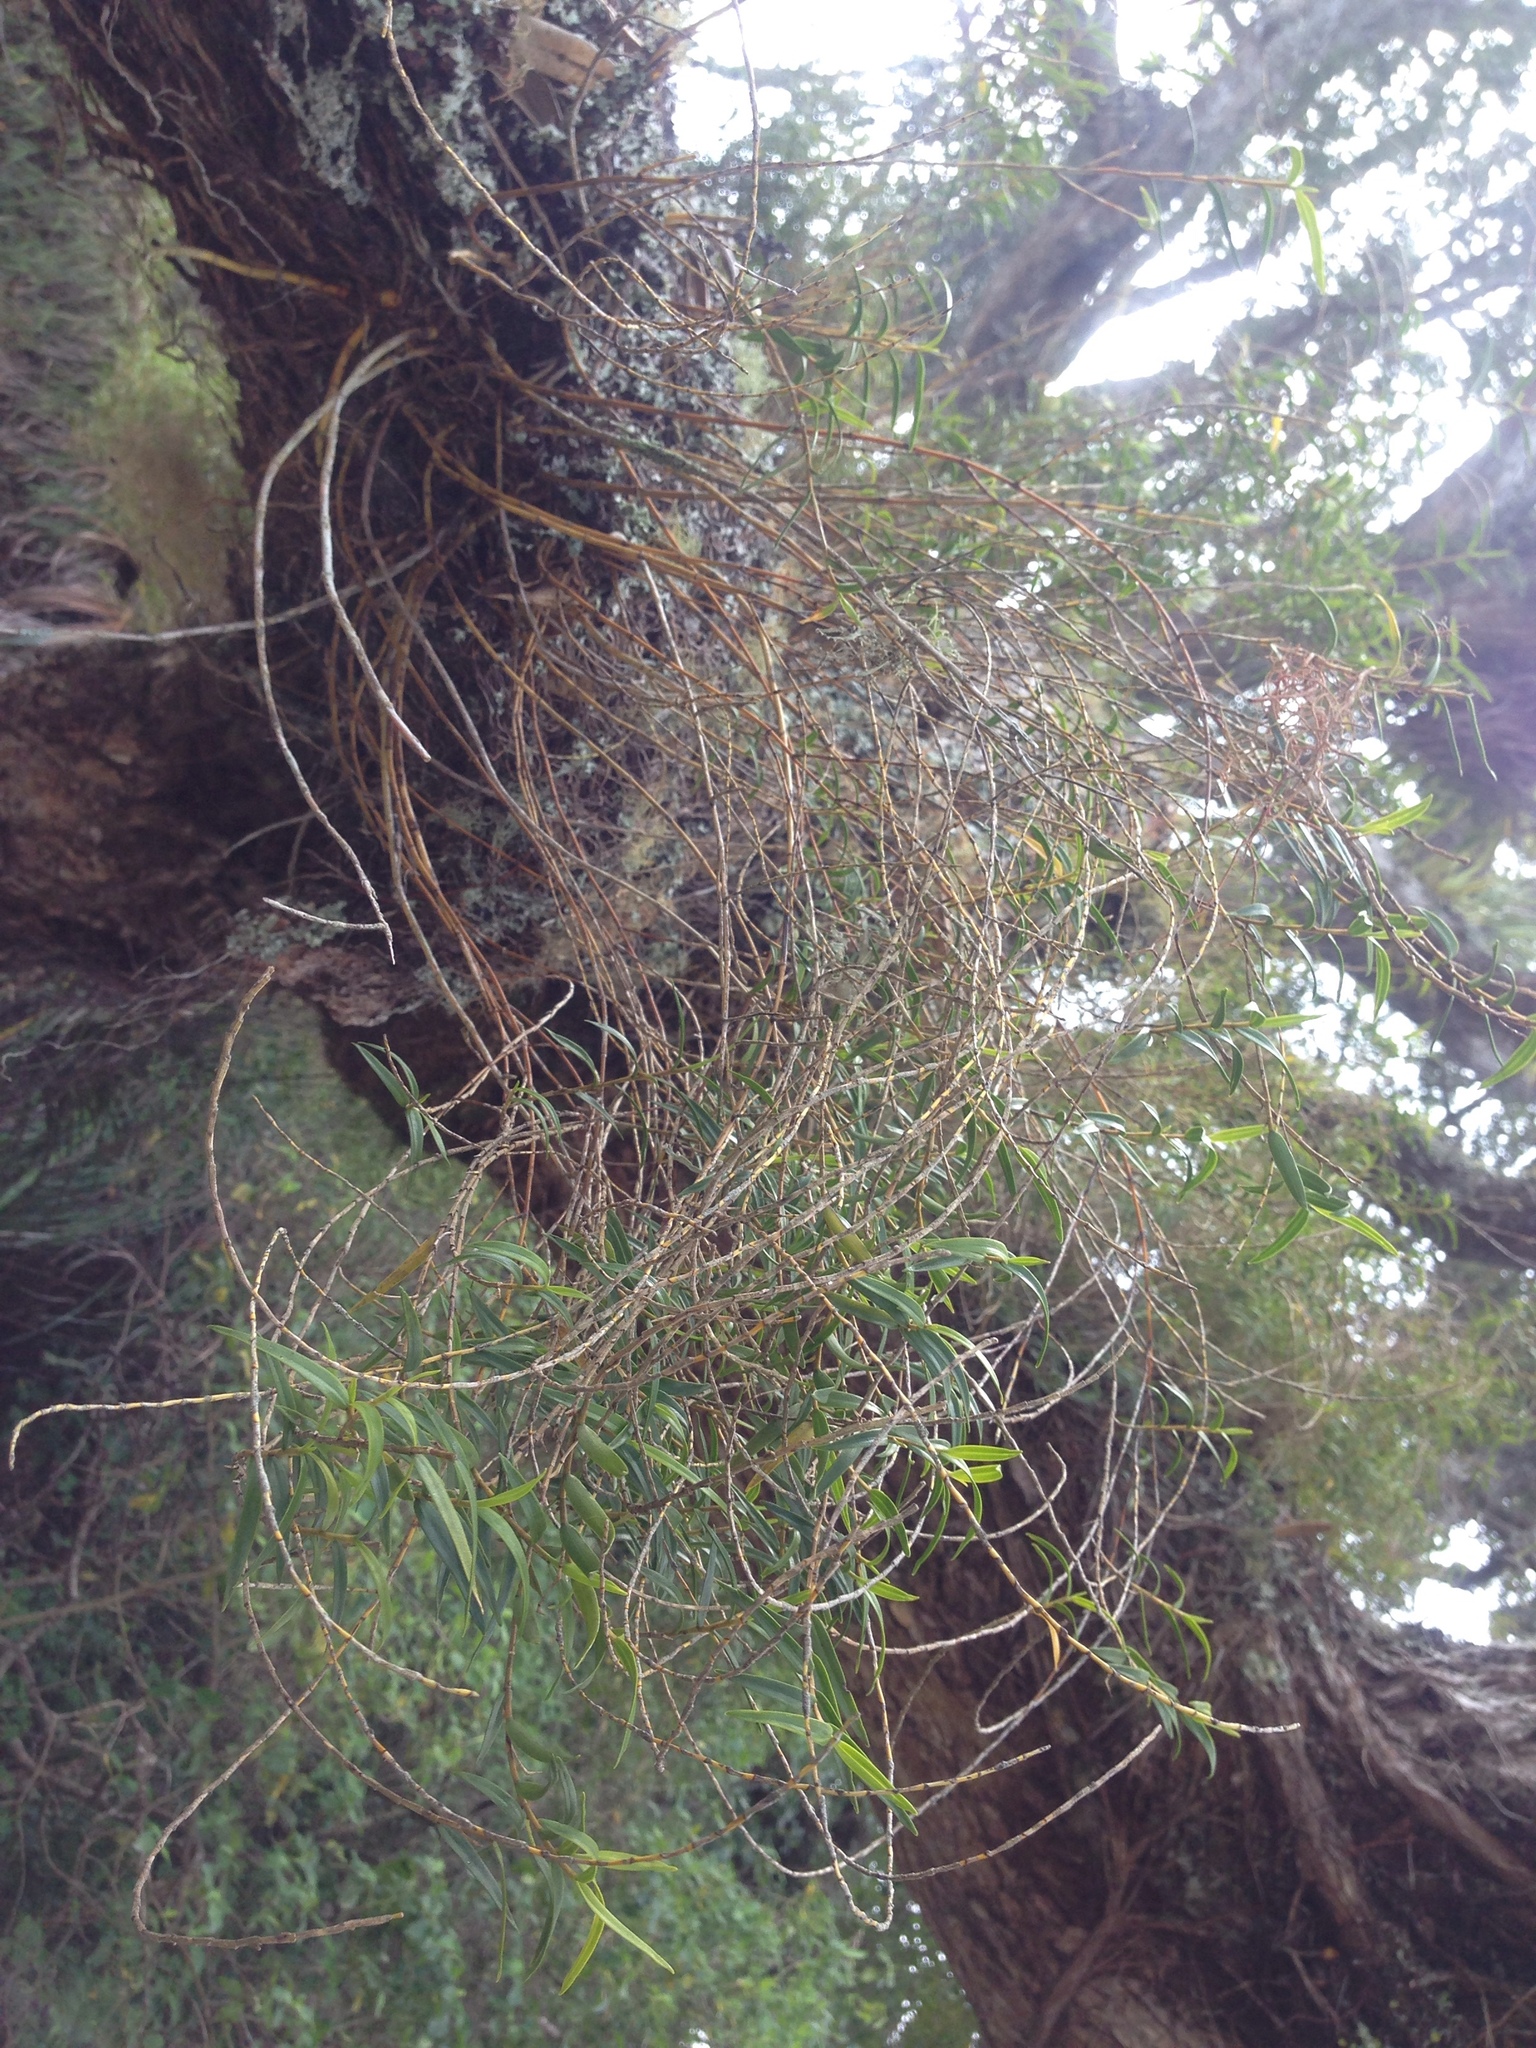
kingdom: Plantae
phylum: Tracheophyta
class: Liliopsida
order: Asparagales
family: Orchidaceae
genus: Dendrobium
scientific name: Dendrobium cunninghamii
